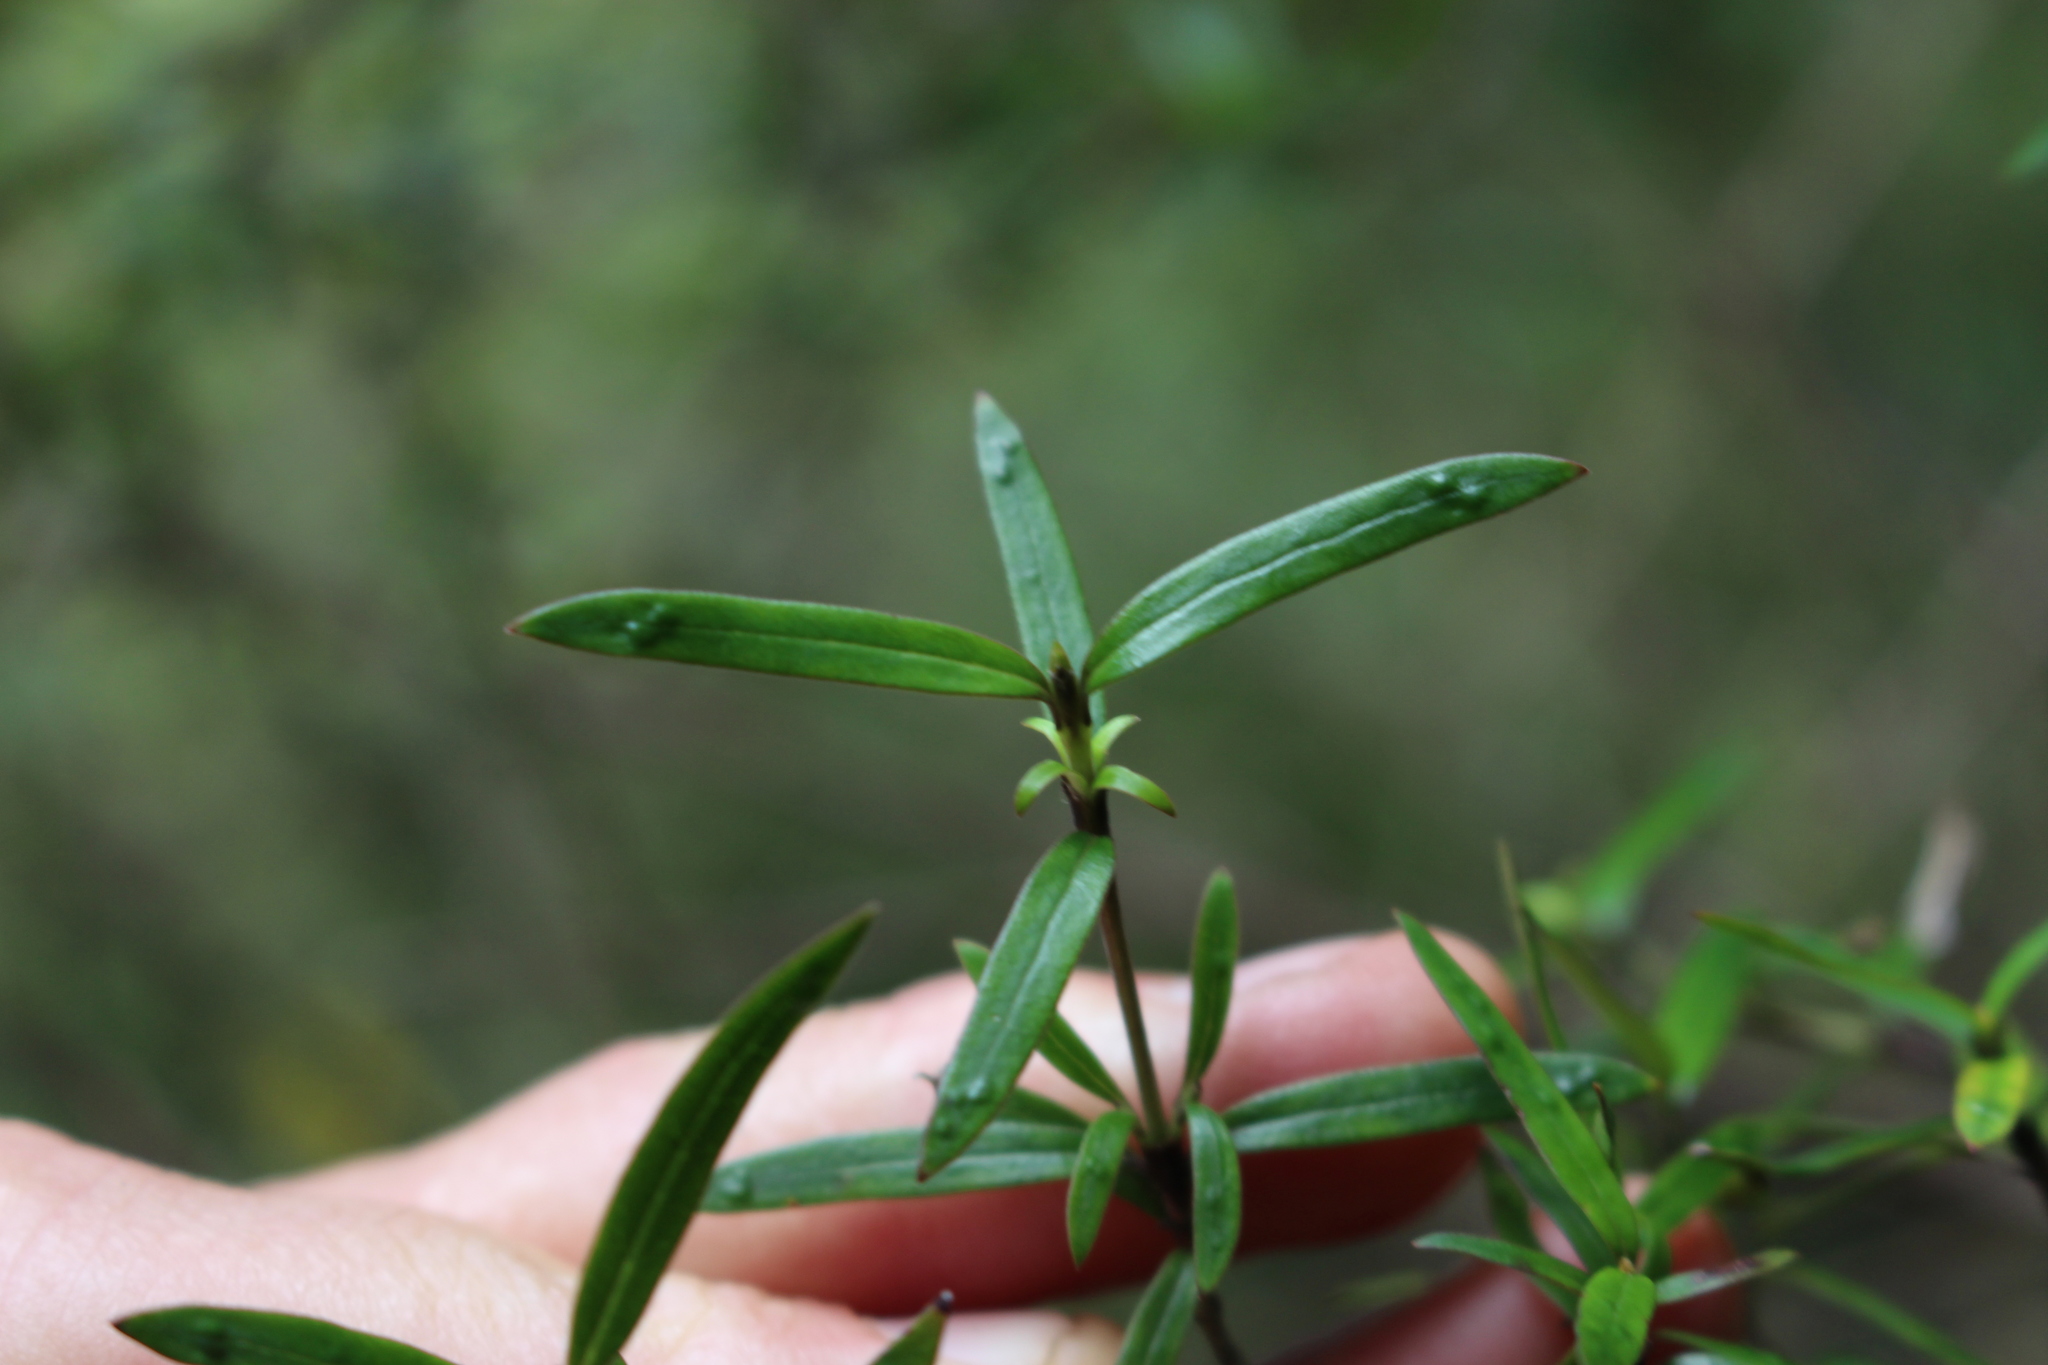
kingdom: Plantae
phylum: Tracheophyta
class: Magnoliopsida
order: Gentianales
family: Rubiaceae
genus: Coprosma
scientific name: Coprosma linariifolia
